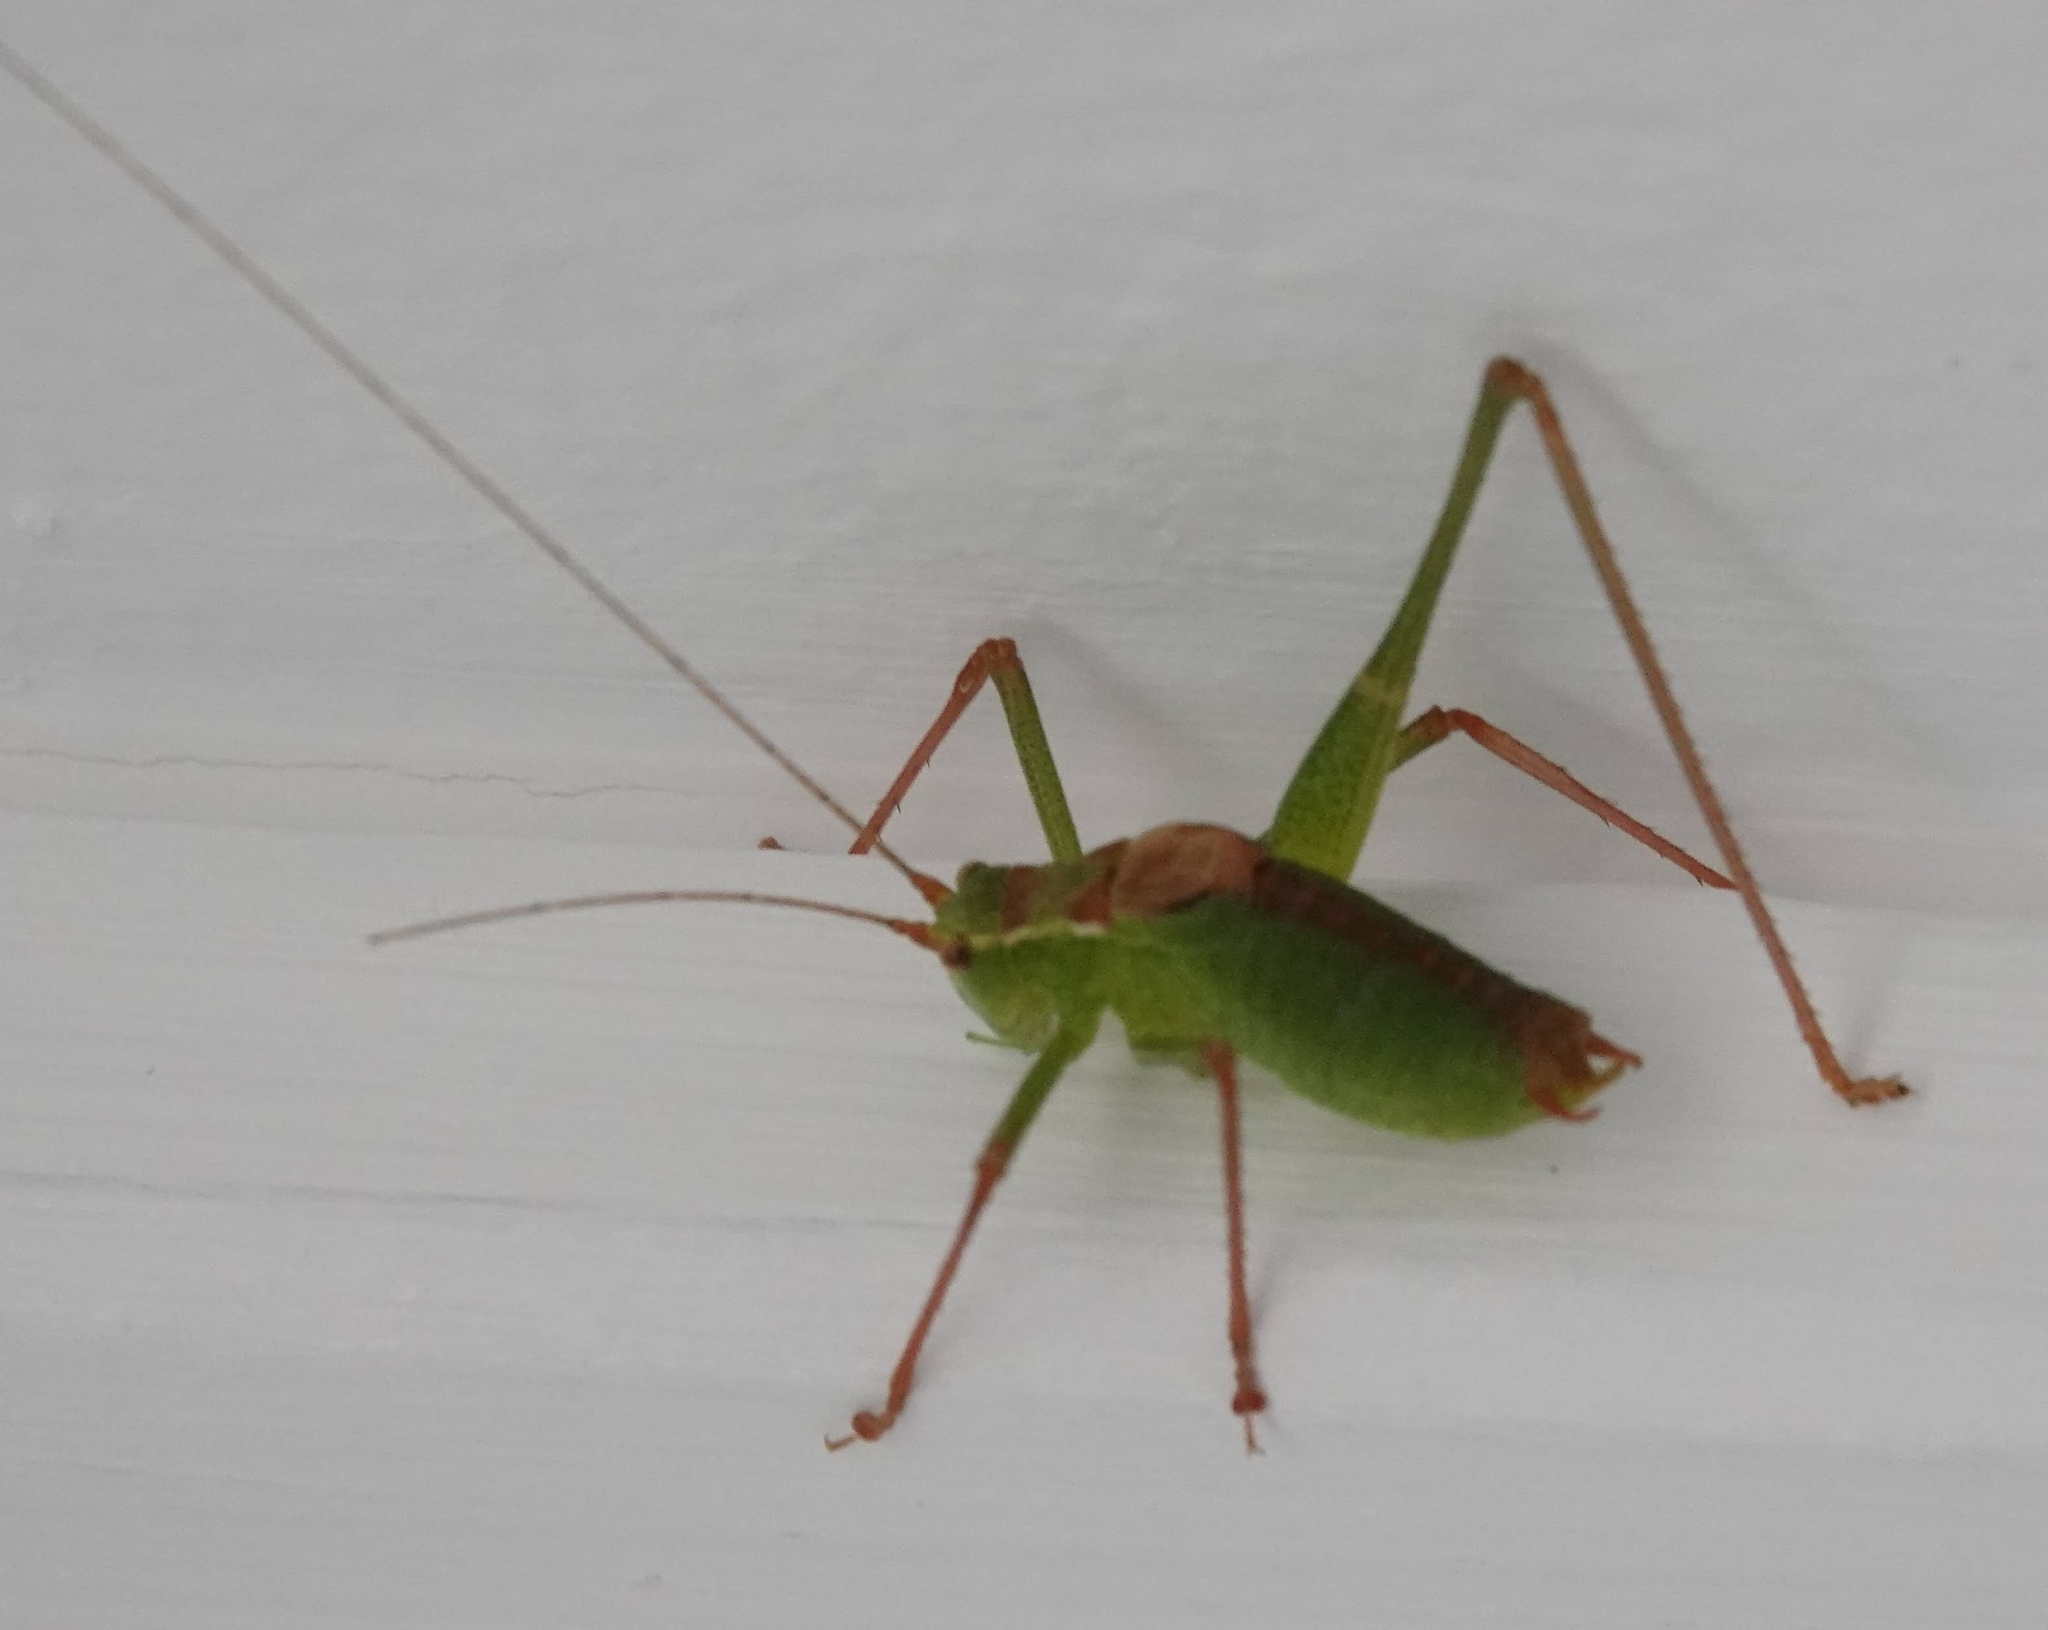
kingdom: Animalia
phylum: Arthropoda
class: Insecta
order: Orthoptera
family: Tettigoniidae
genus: Leptophyes
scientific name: Leptophyes punctatissima
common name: Speckled bush-cricket
